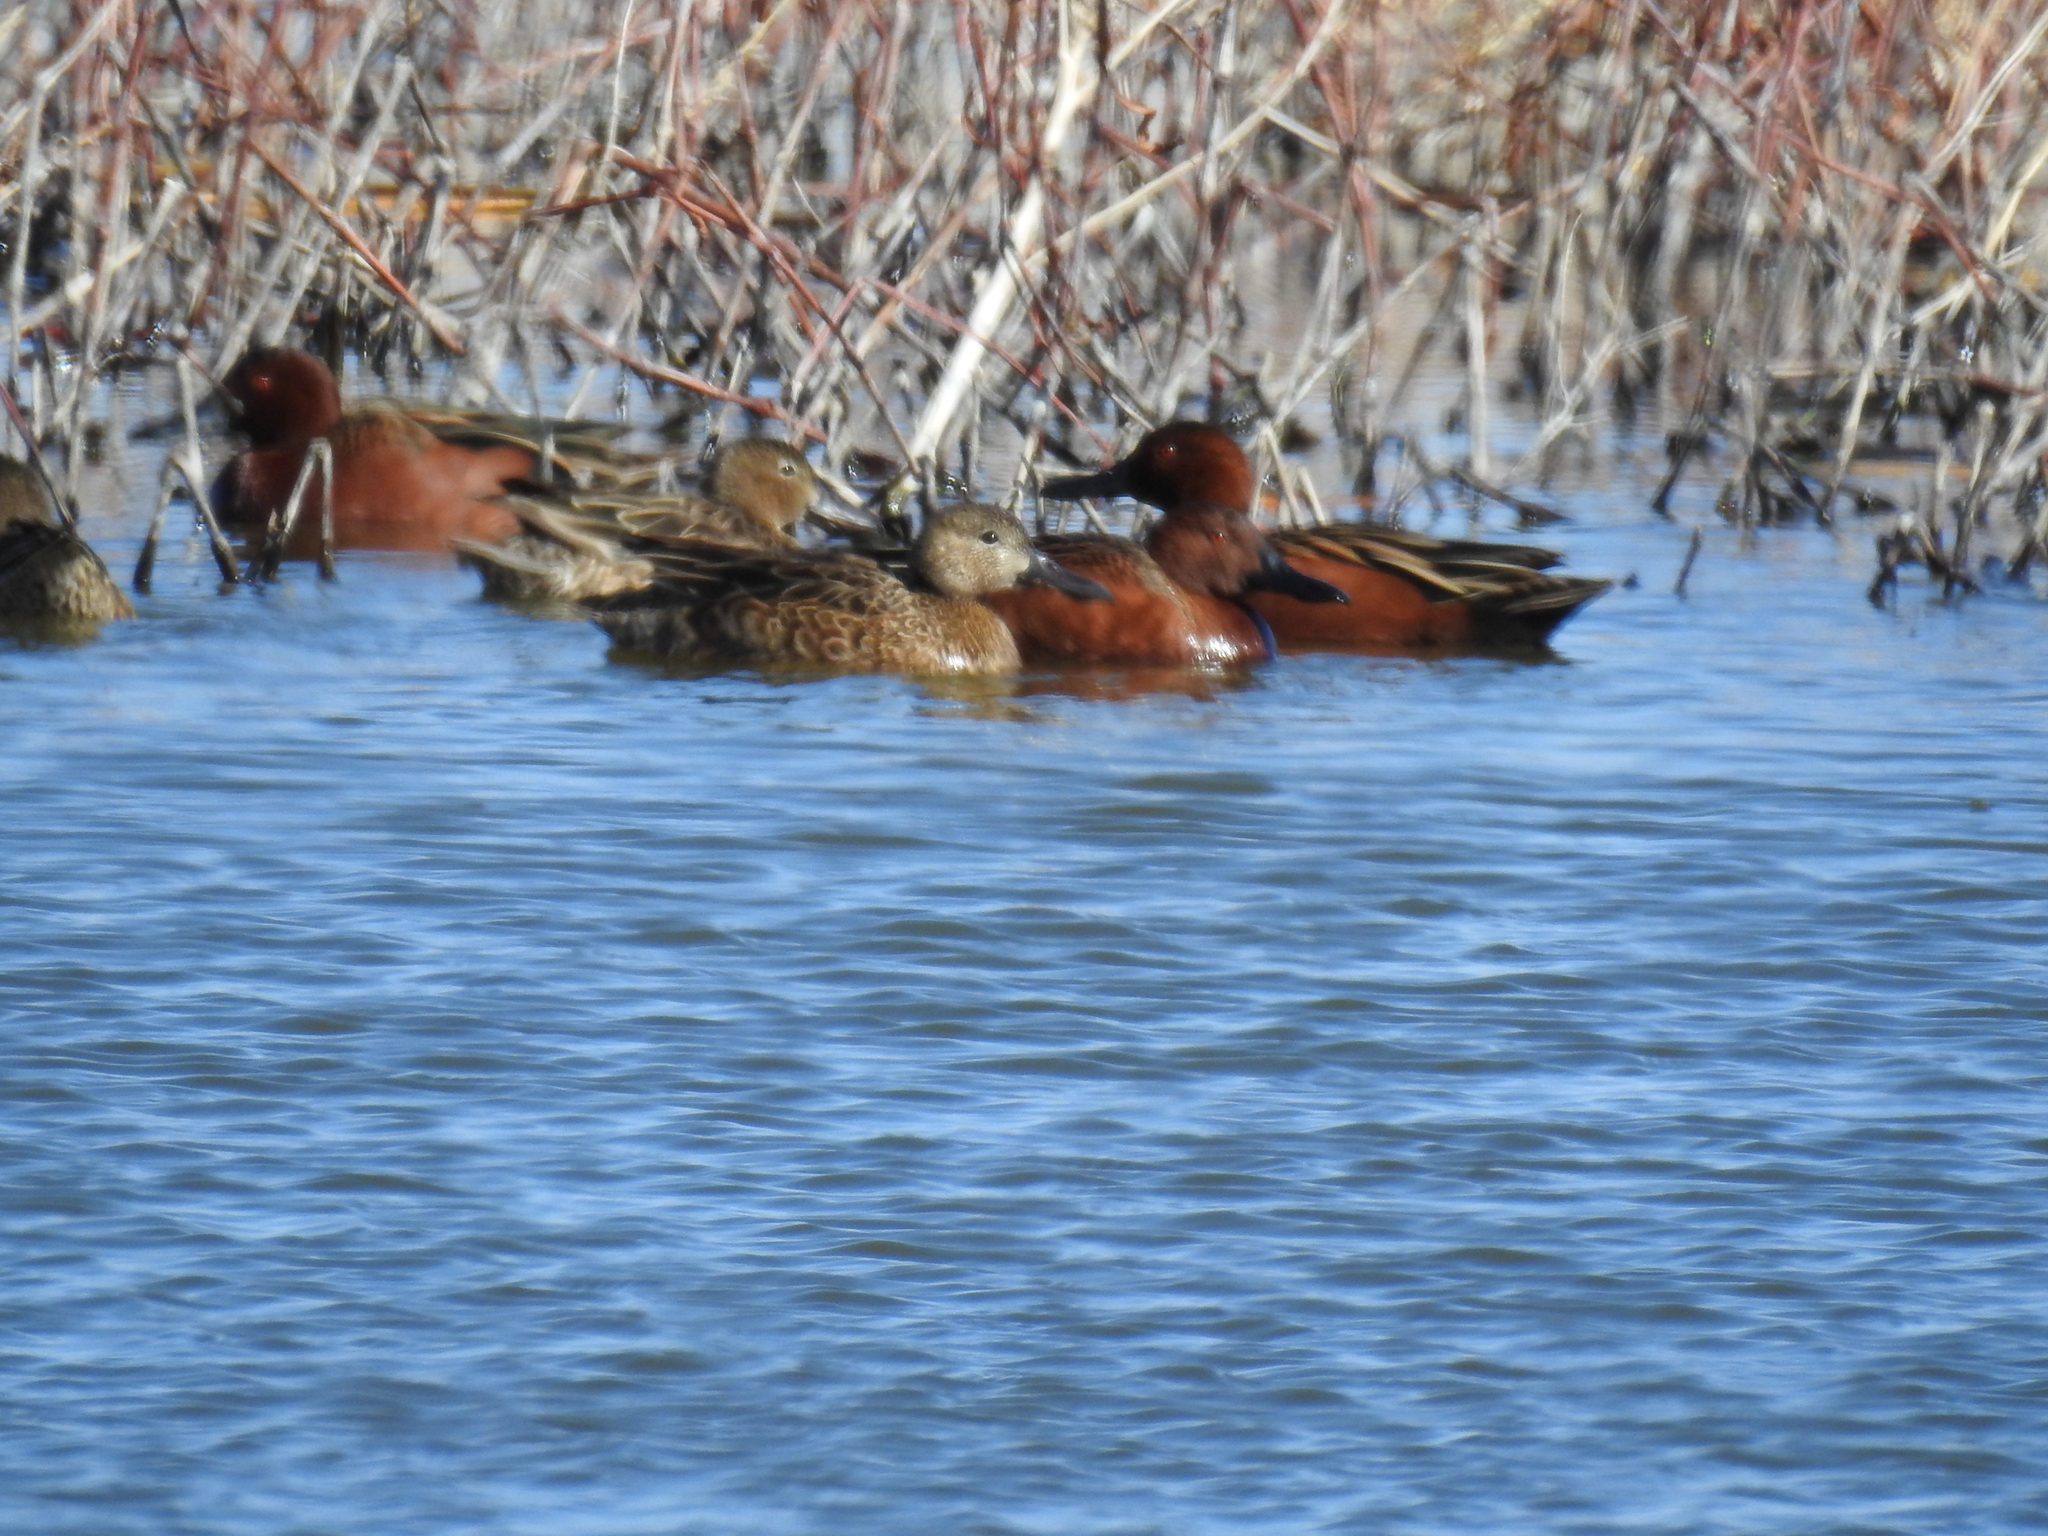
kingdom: Animalia
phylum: Chordata
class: Aves
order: Anseriformes
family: Anatidae
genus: Spatula
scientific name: Spatula cyanoptera
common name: Cinnamon teal
